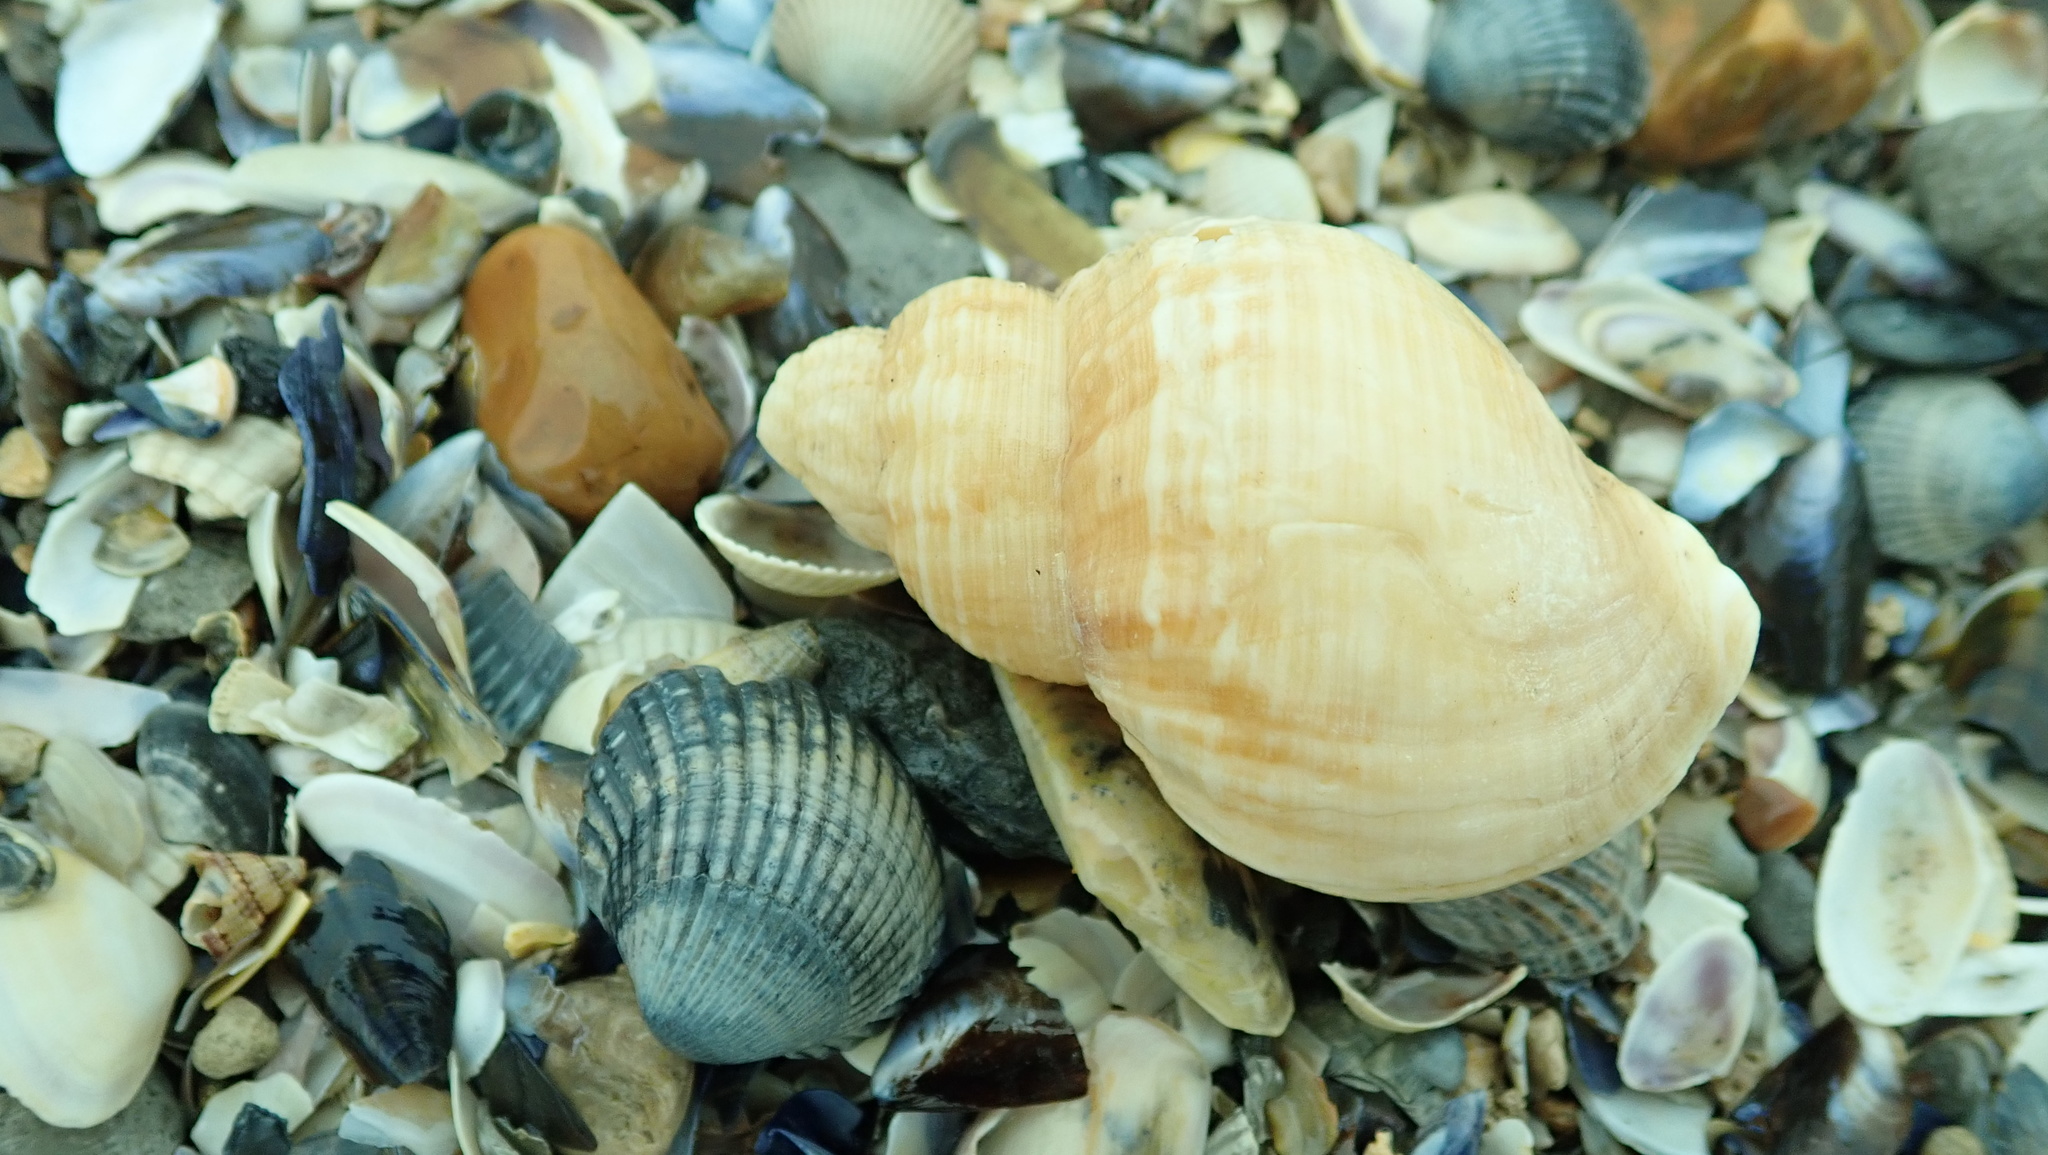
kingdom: Animalia
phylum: Mollusca
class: Gastropoda
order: Neogastropoda
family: Buccinidae
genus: Buccinum
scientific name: Buccinum undatum
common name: Common whelk
